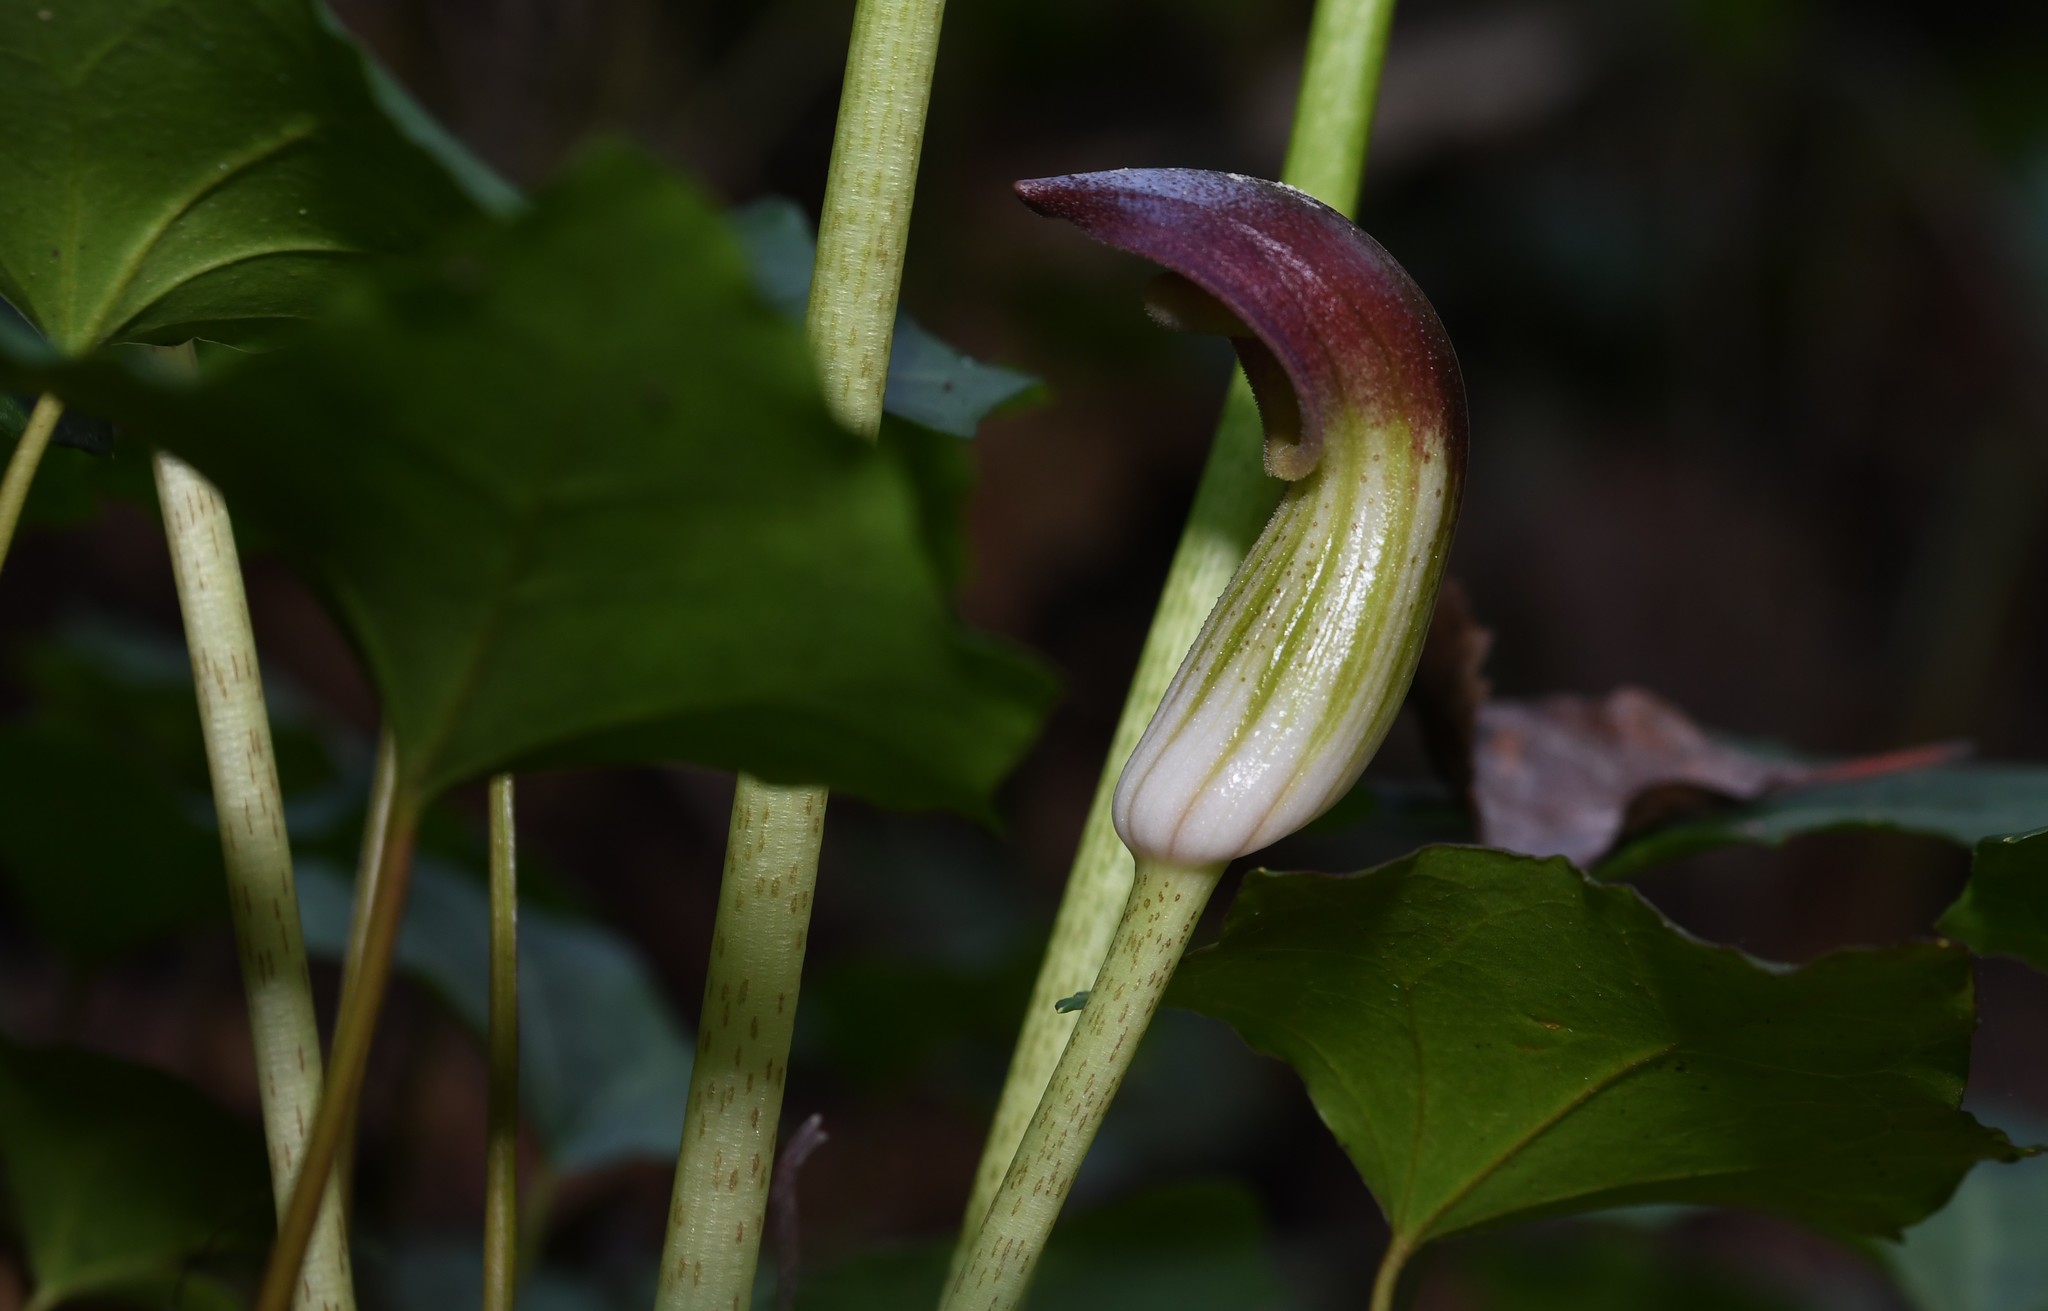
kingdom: Plantae
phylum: Tracheophyta
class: Liliopsida
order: Alismatales
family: Araceae
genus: Arisarum
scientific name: Arisarum simorrhinum
